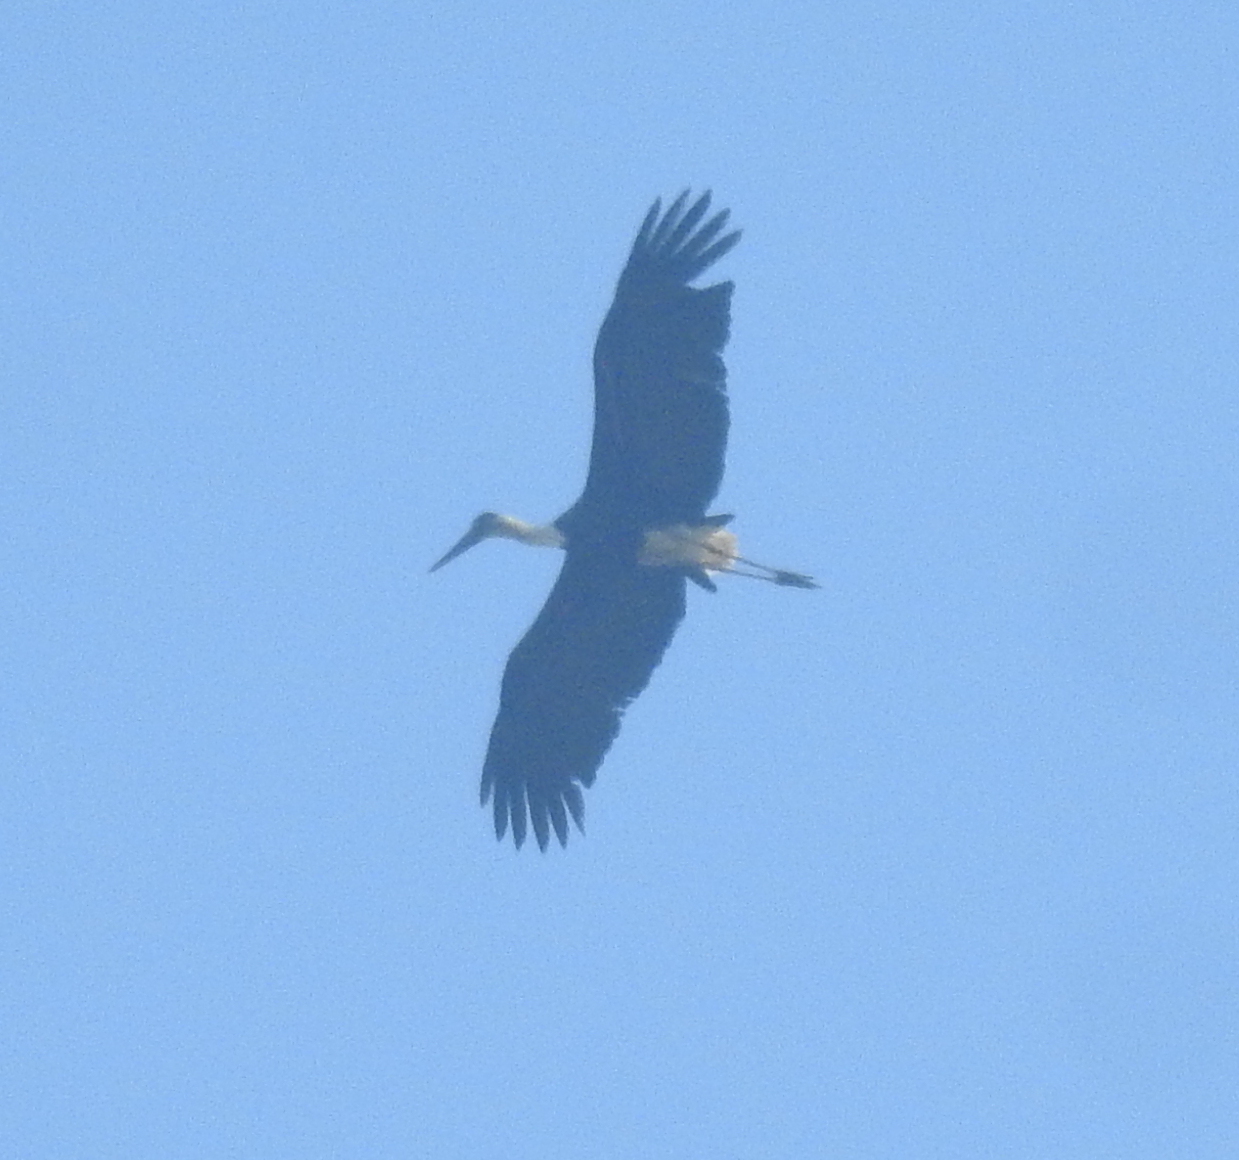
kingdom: Animalia
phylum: Chordata
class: Aves
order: Ciconiiformes
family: Ciconiidae
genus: Ciconia
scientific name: Ciconia episcopus
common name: Woolly-necked stork
